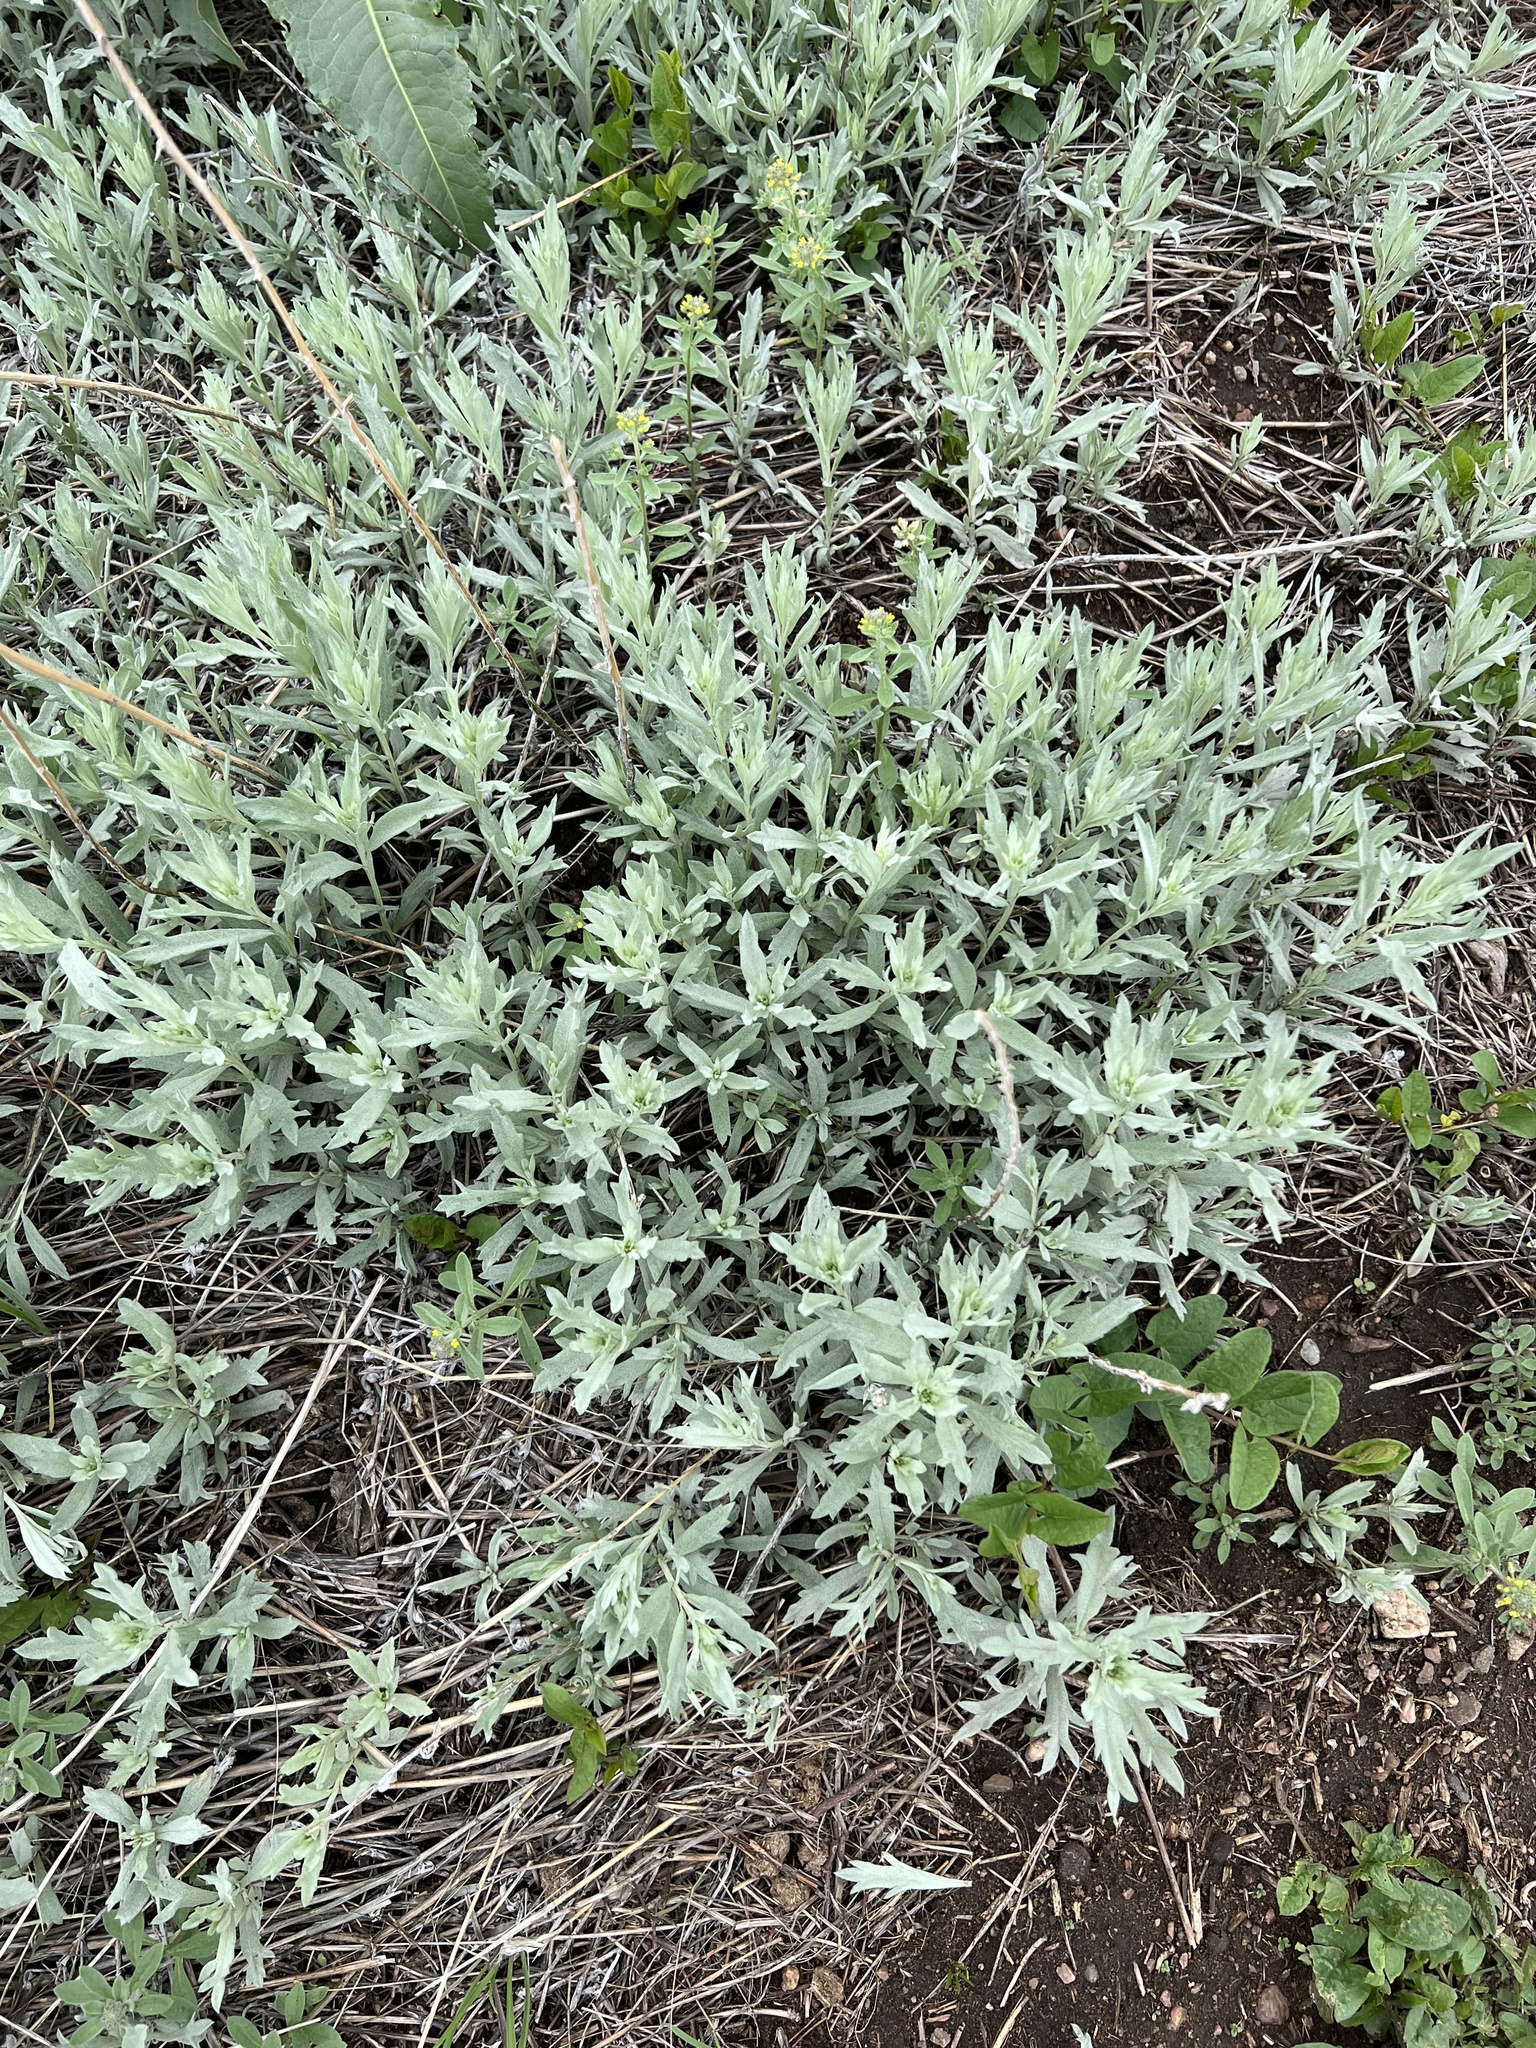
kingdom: Plantae
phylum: Tracheophyta
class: Magnoliopsida
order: Asterales
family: Asteraceae
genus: Artemisia
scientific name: Artemisia ludoviciana
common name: Western mugwort
